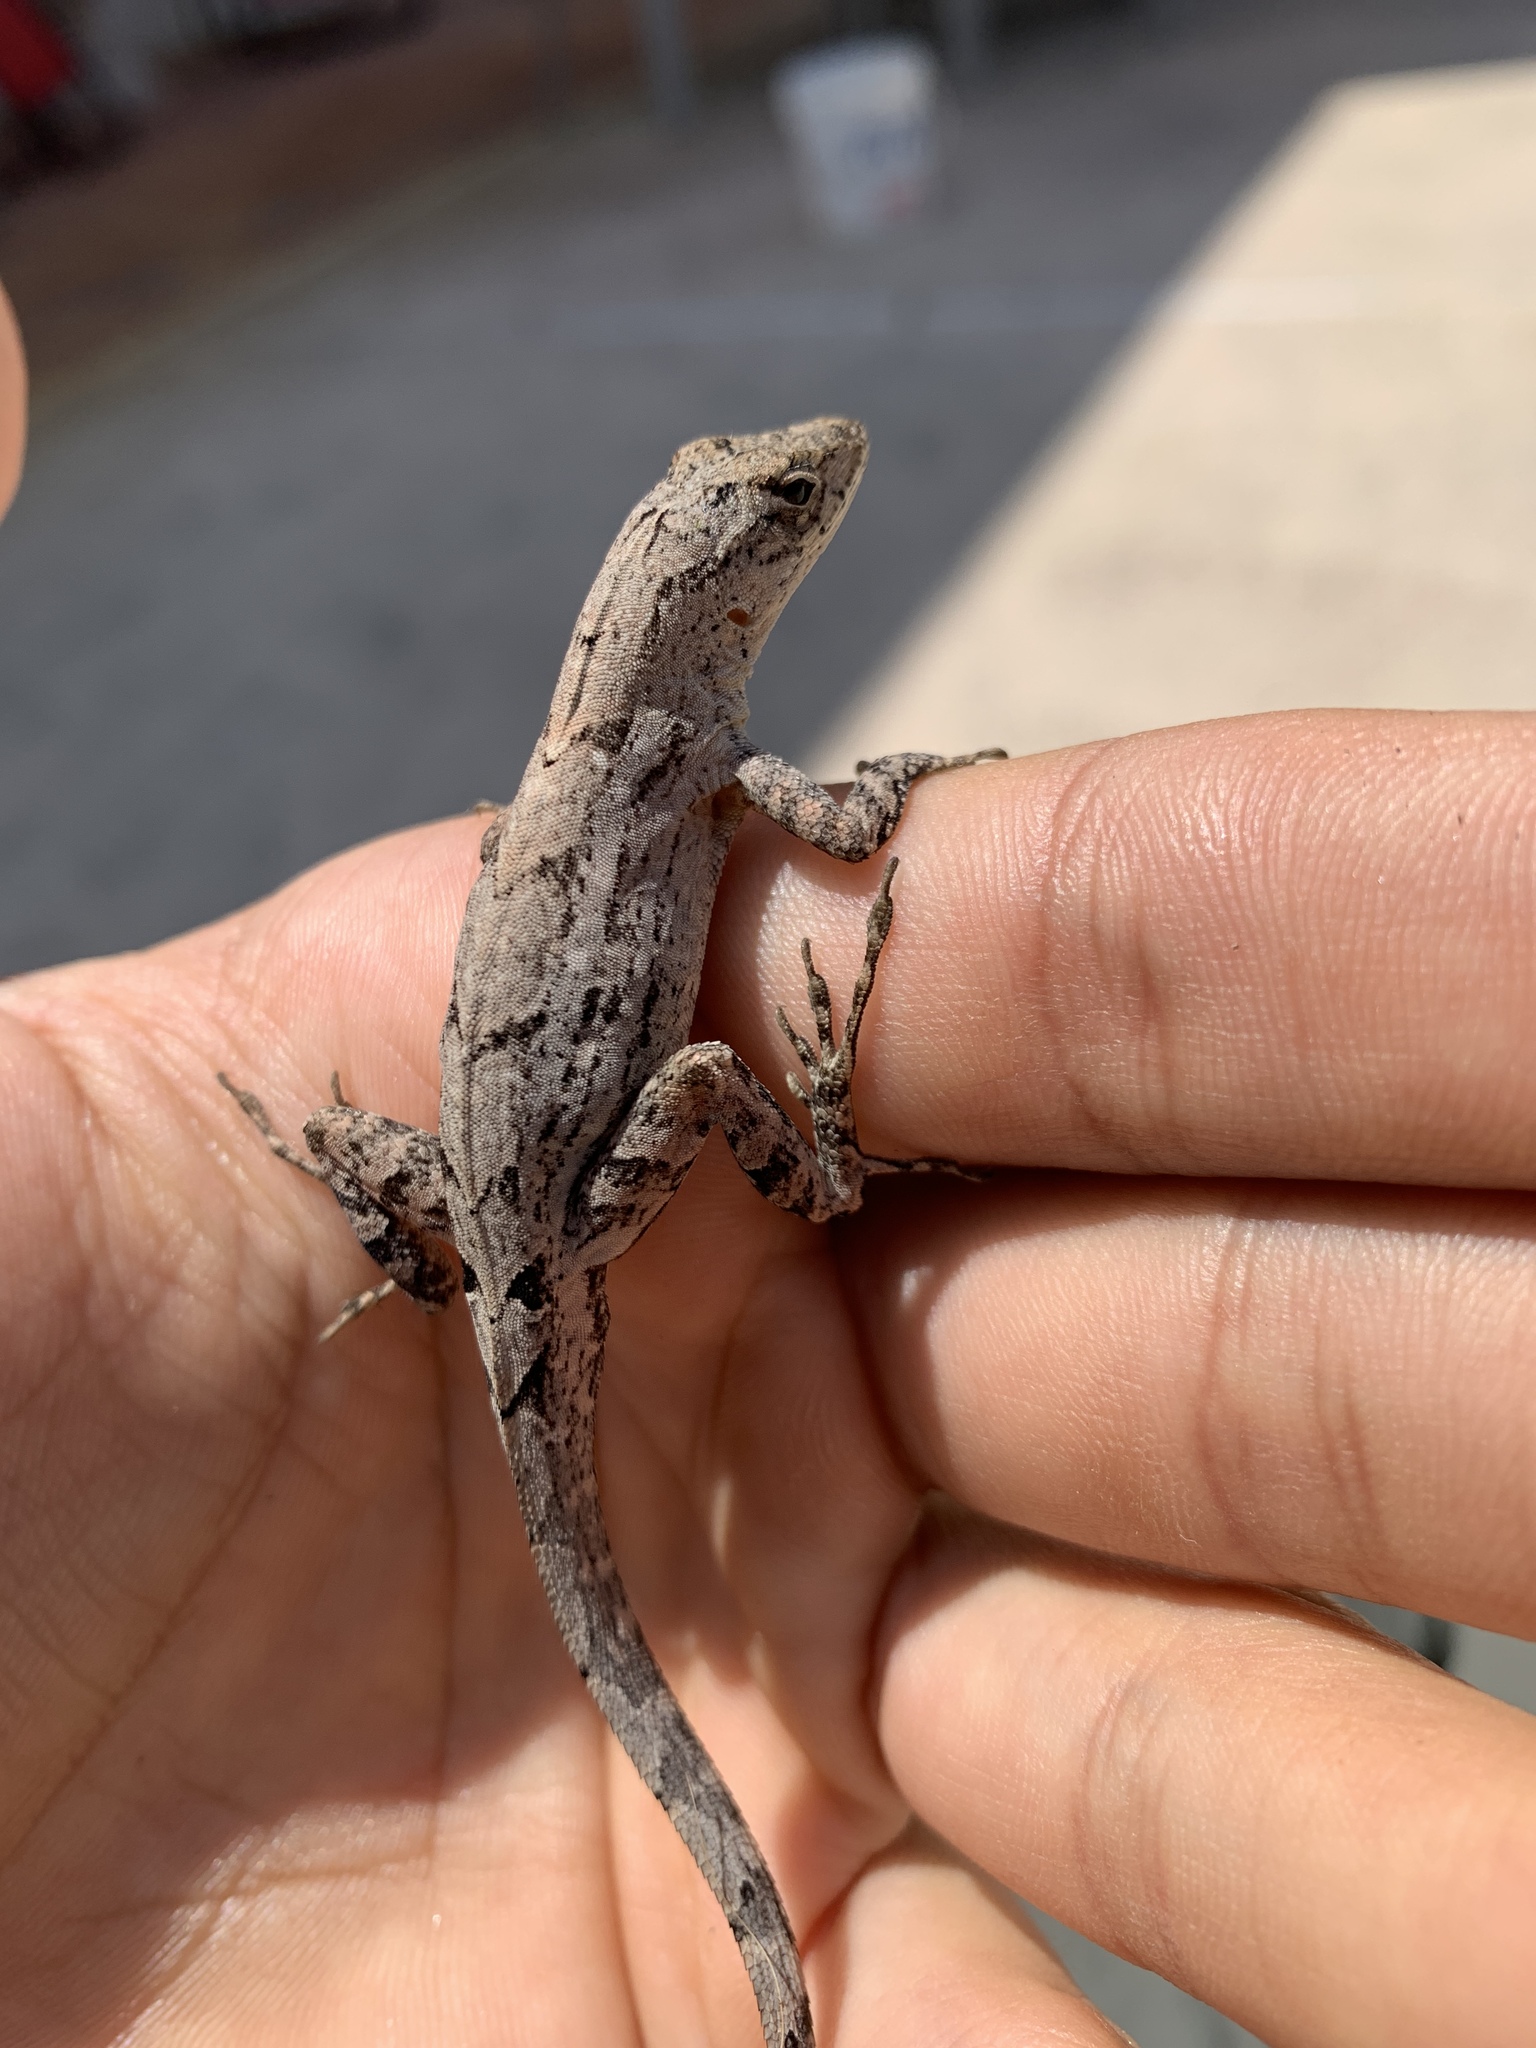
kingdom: Animalia
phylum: Chordata
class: Squamata
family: Dactyloidae
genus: Anolis
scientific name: Anolis sagrei
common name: Brown anole
